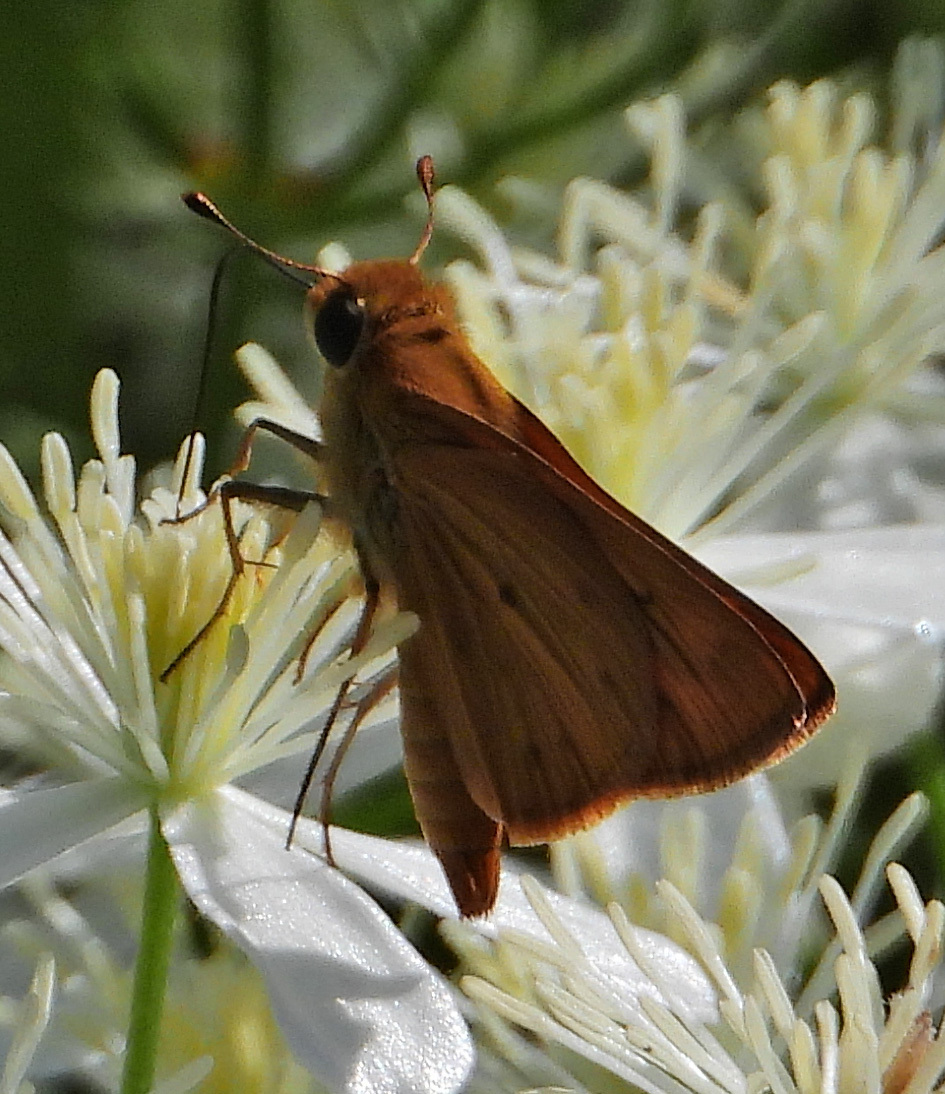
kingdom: Animalia
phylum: Arthropoda
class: Insecta
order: Lepidoptera
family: Hesperiidae
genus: Hylephila
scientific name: Hylephila phyleus
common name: Fiery skipper
